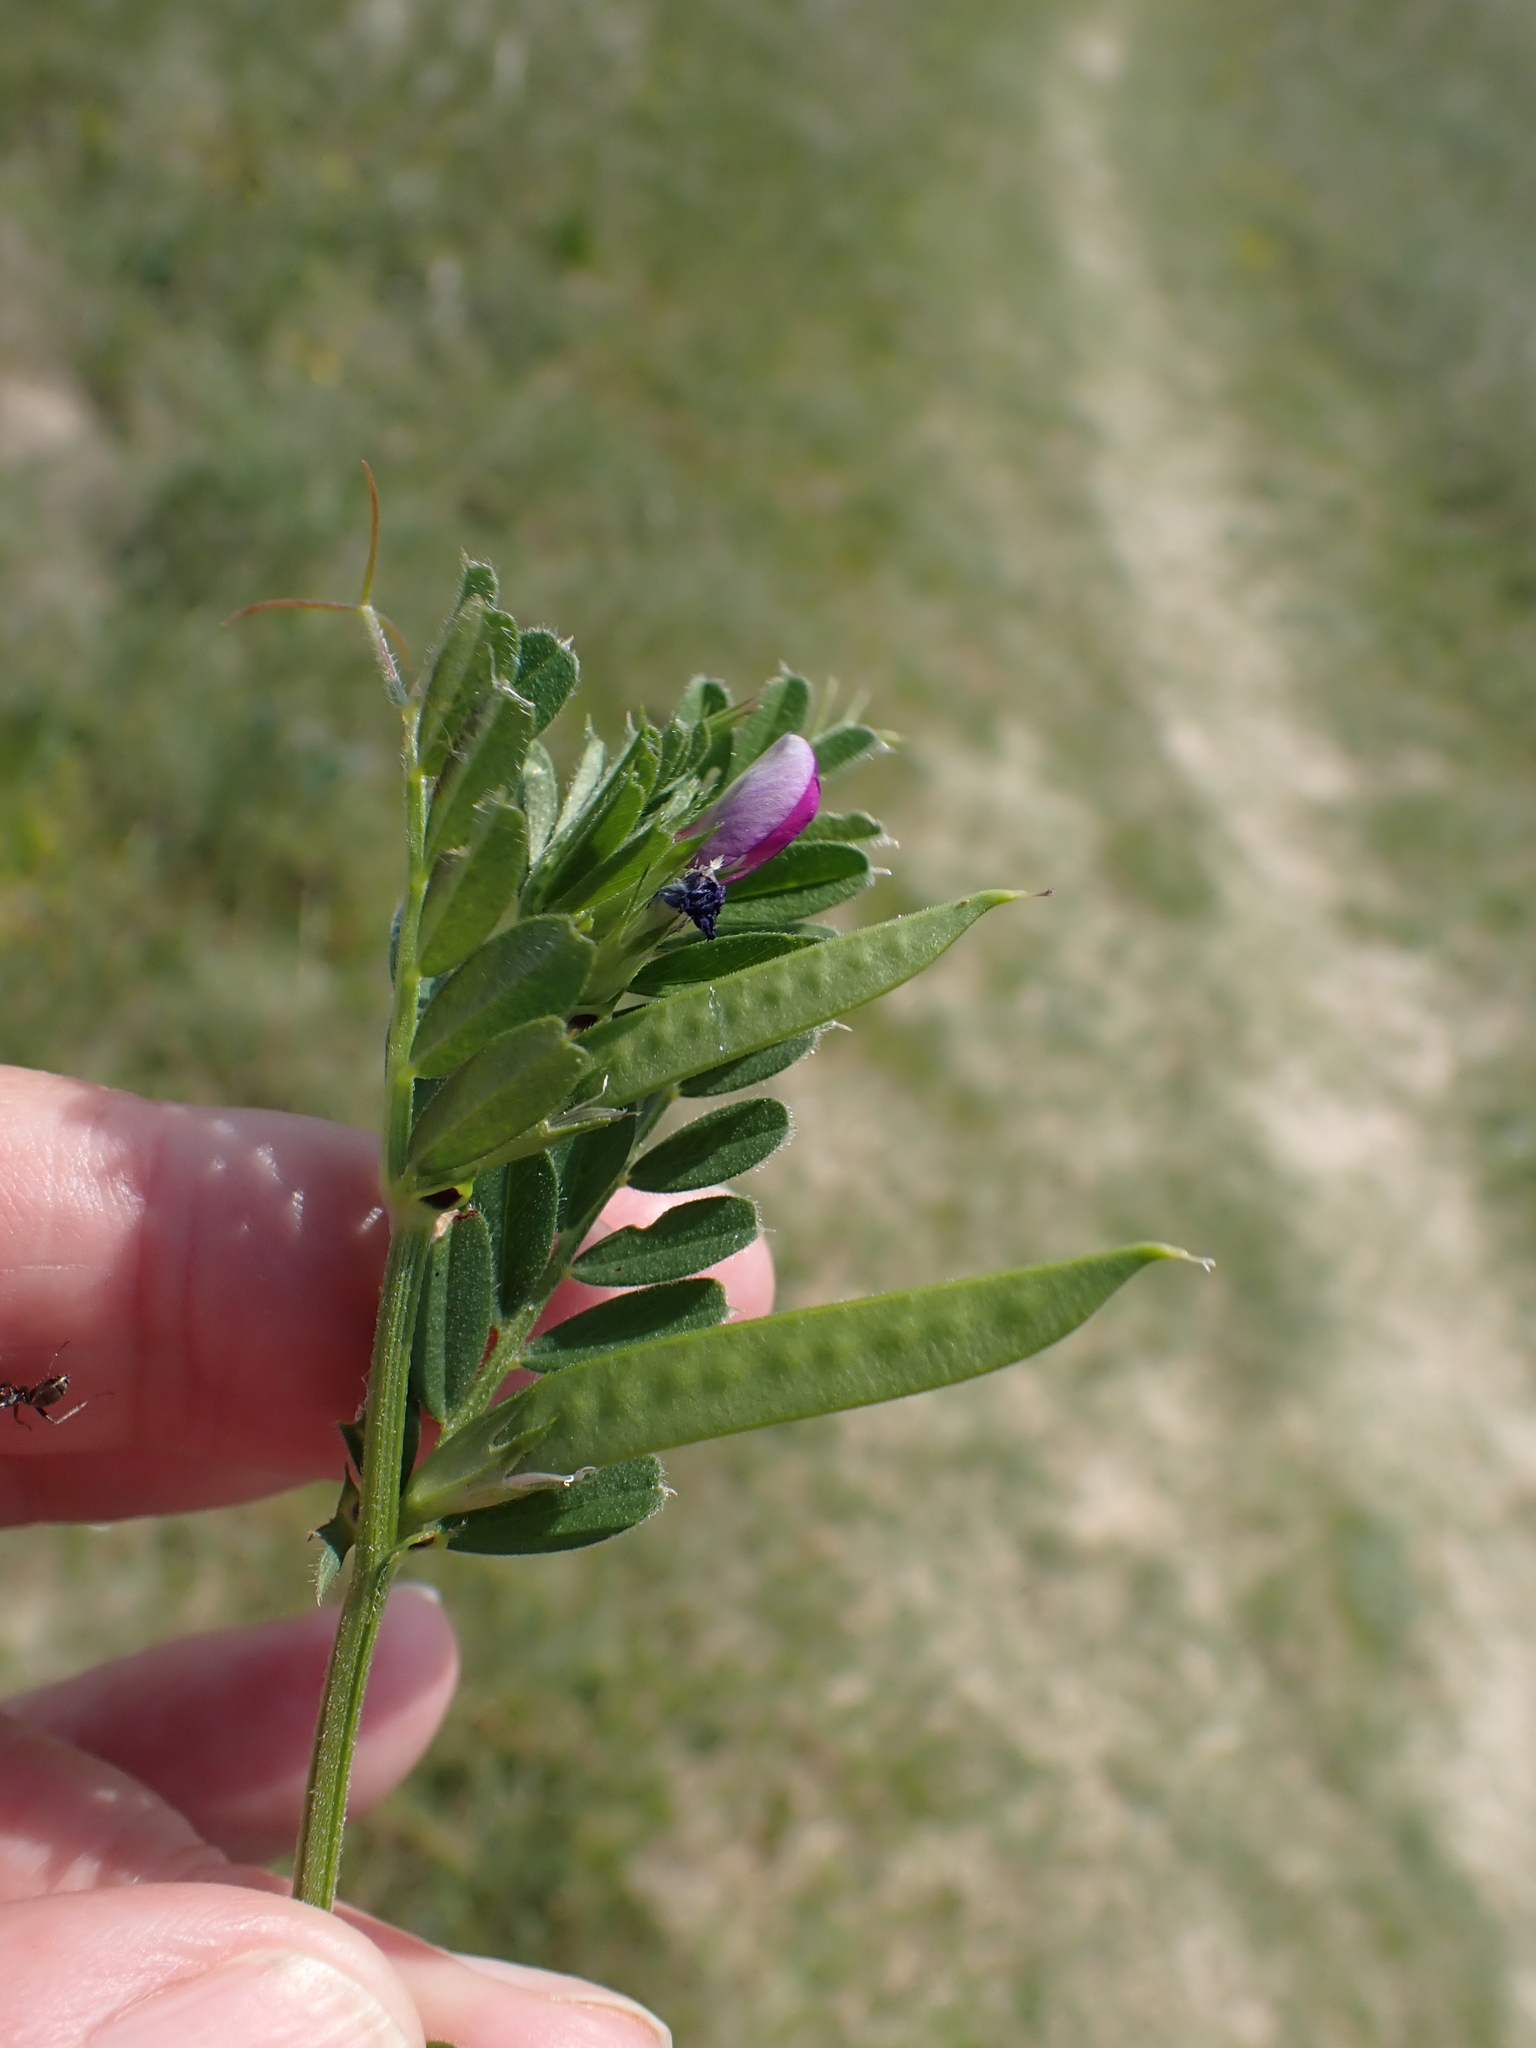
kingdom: Plantae
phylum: Tracheophyta
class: Magnoliopsida
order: Fabales
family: Fabaceae
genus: Vicia
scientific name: Vicia sativa
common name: Garden vetch
